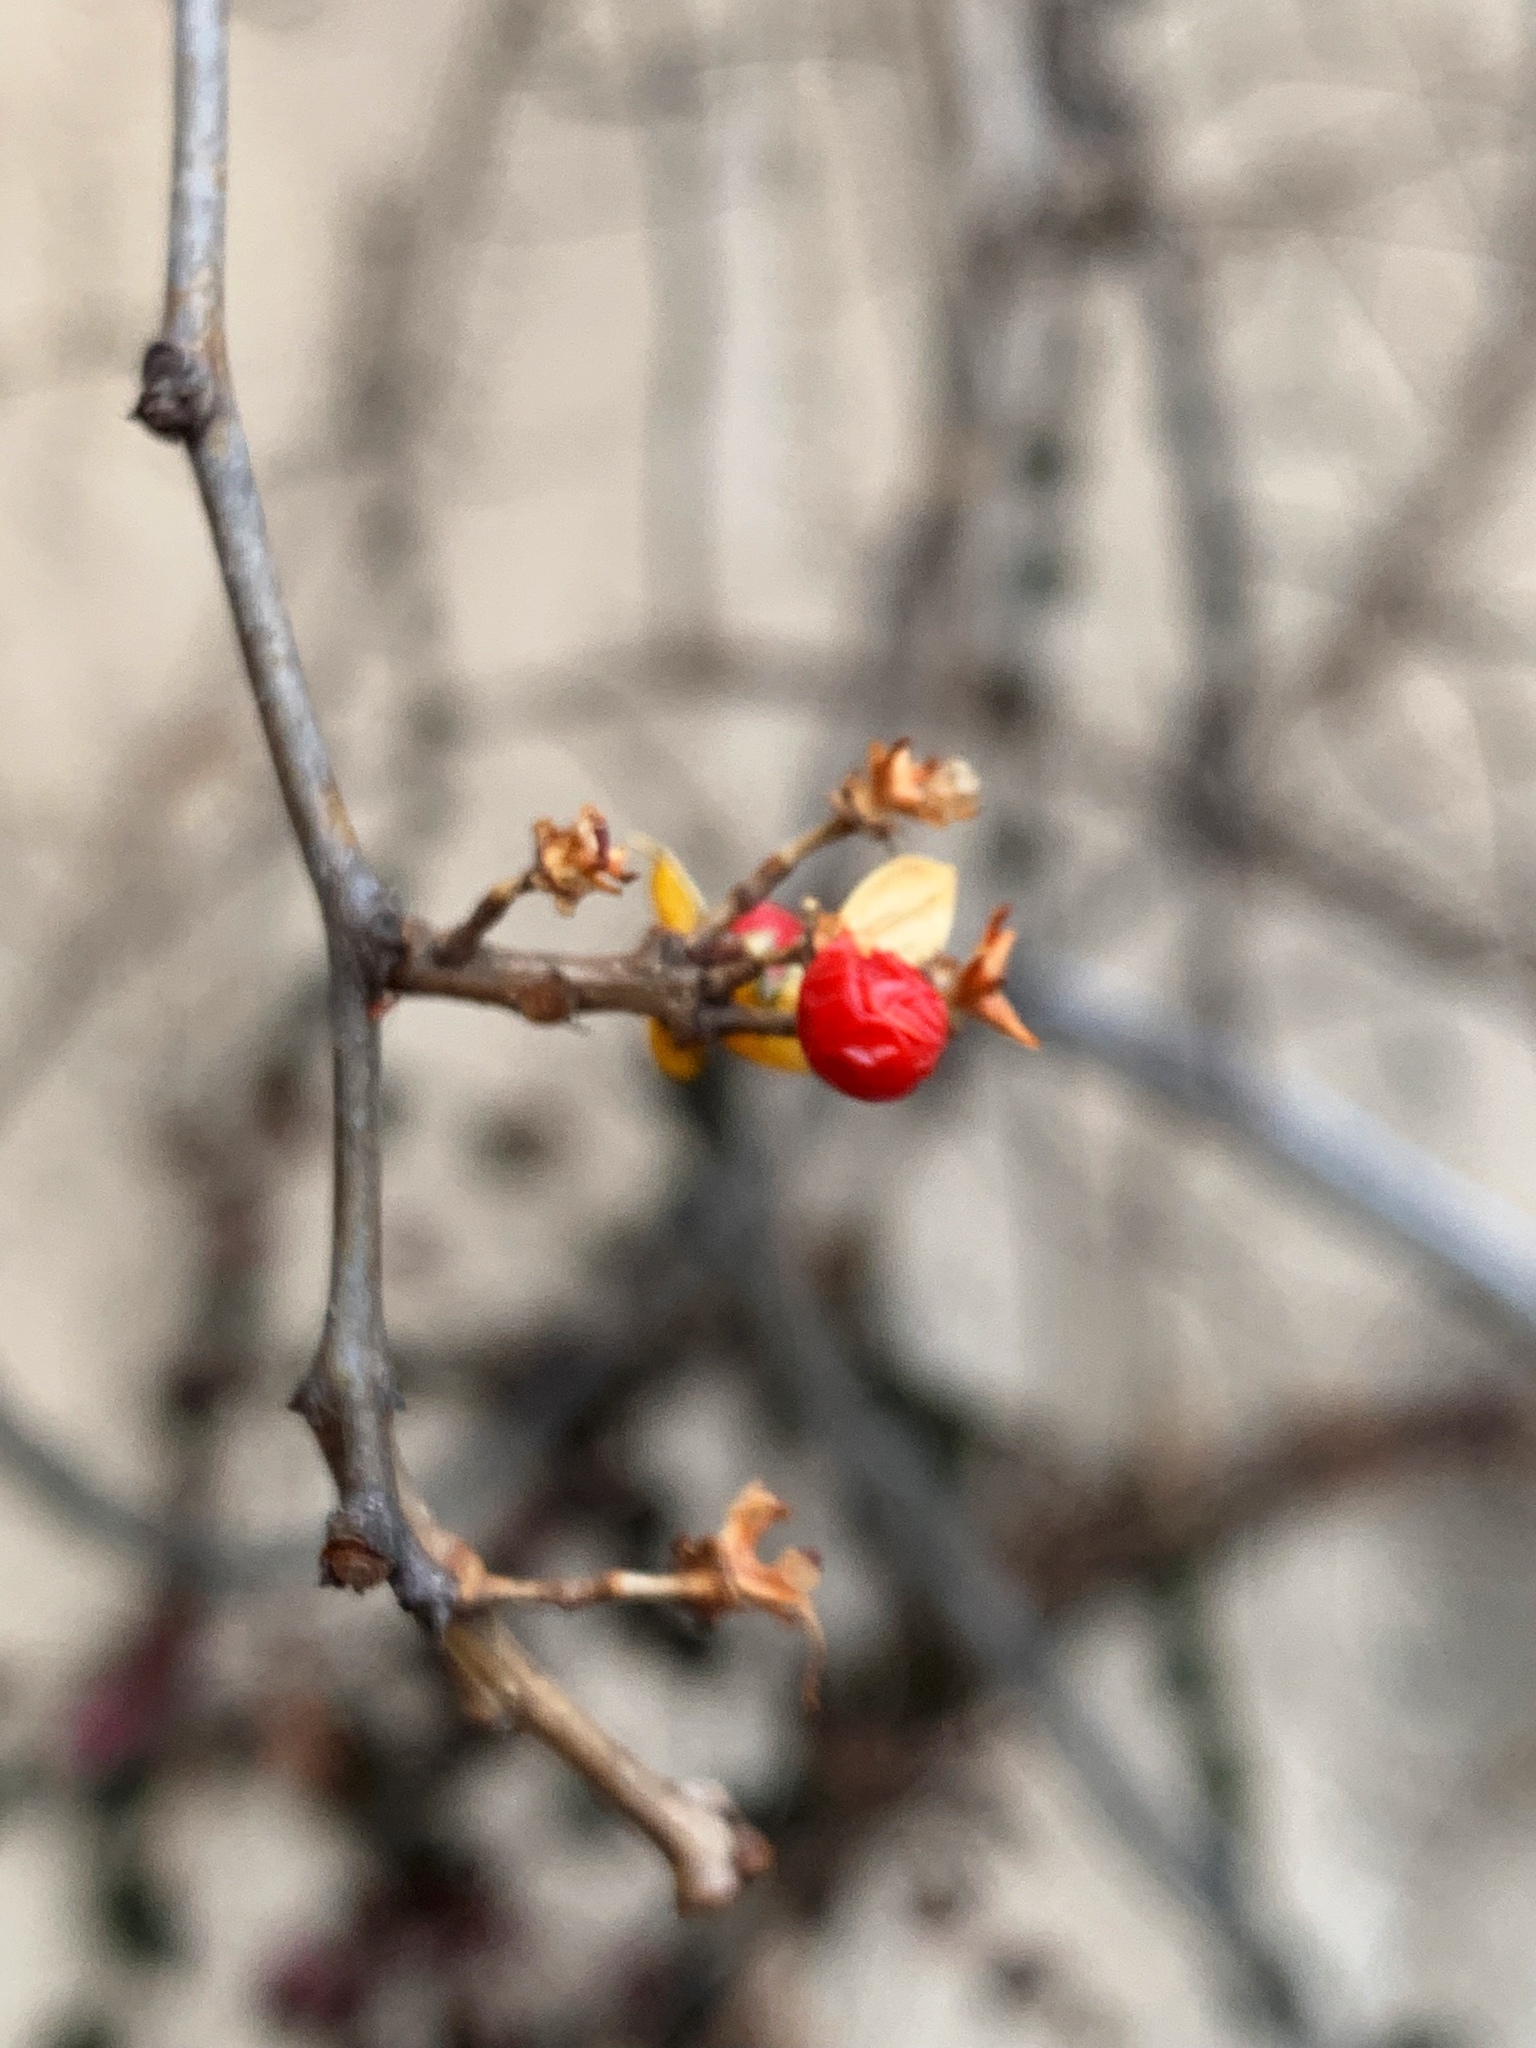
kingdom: Plantae
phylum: Tracheophyta
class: Magnoliopsida
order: Celastrales
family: Celastraceae
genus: Celastrus
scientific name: Celastrus orbiculatus
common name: Oriental bittersweet
